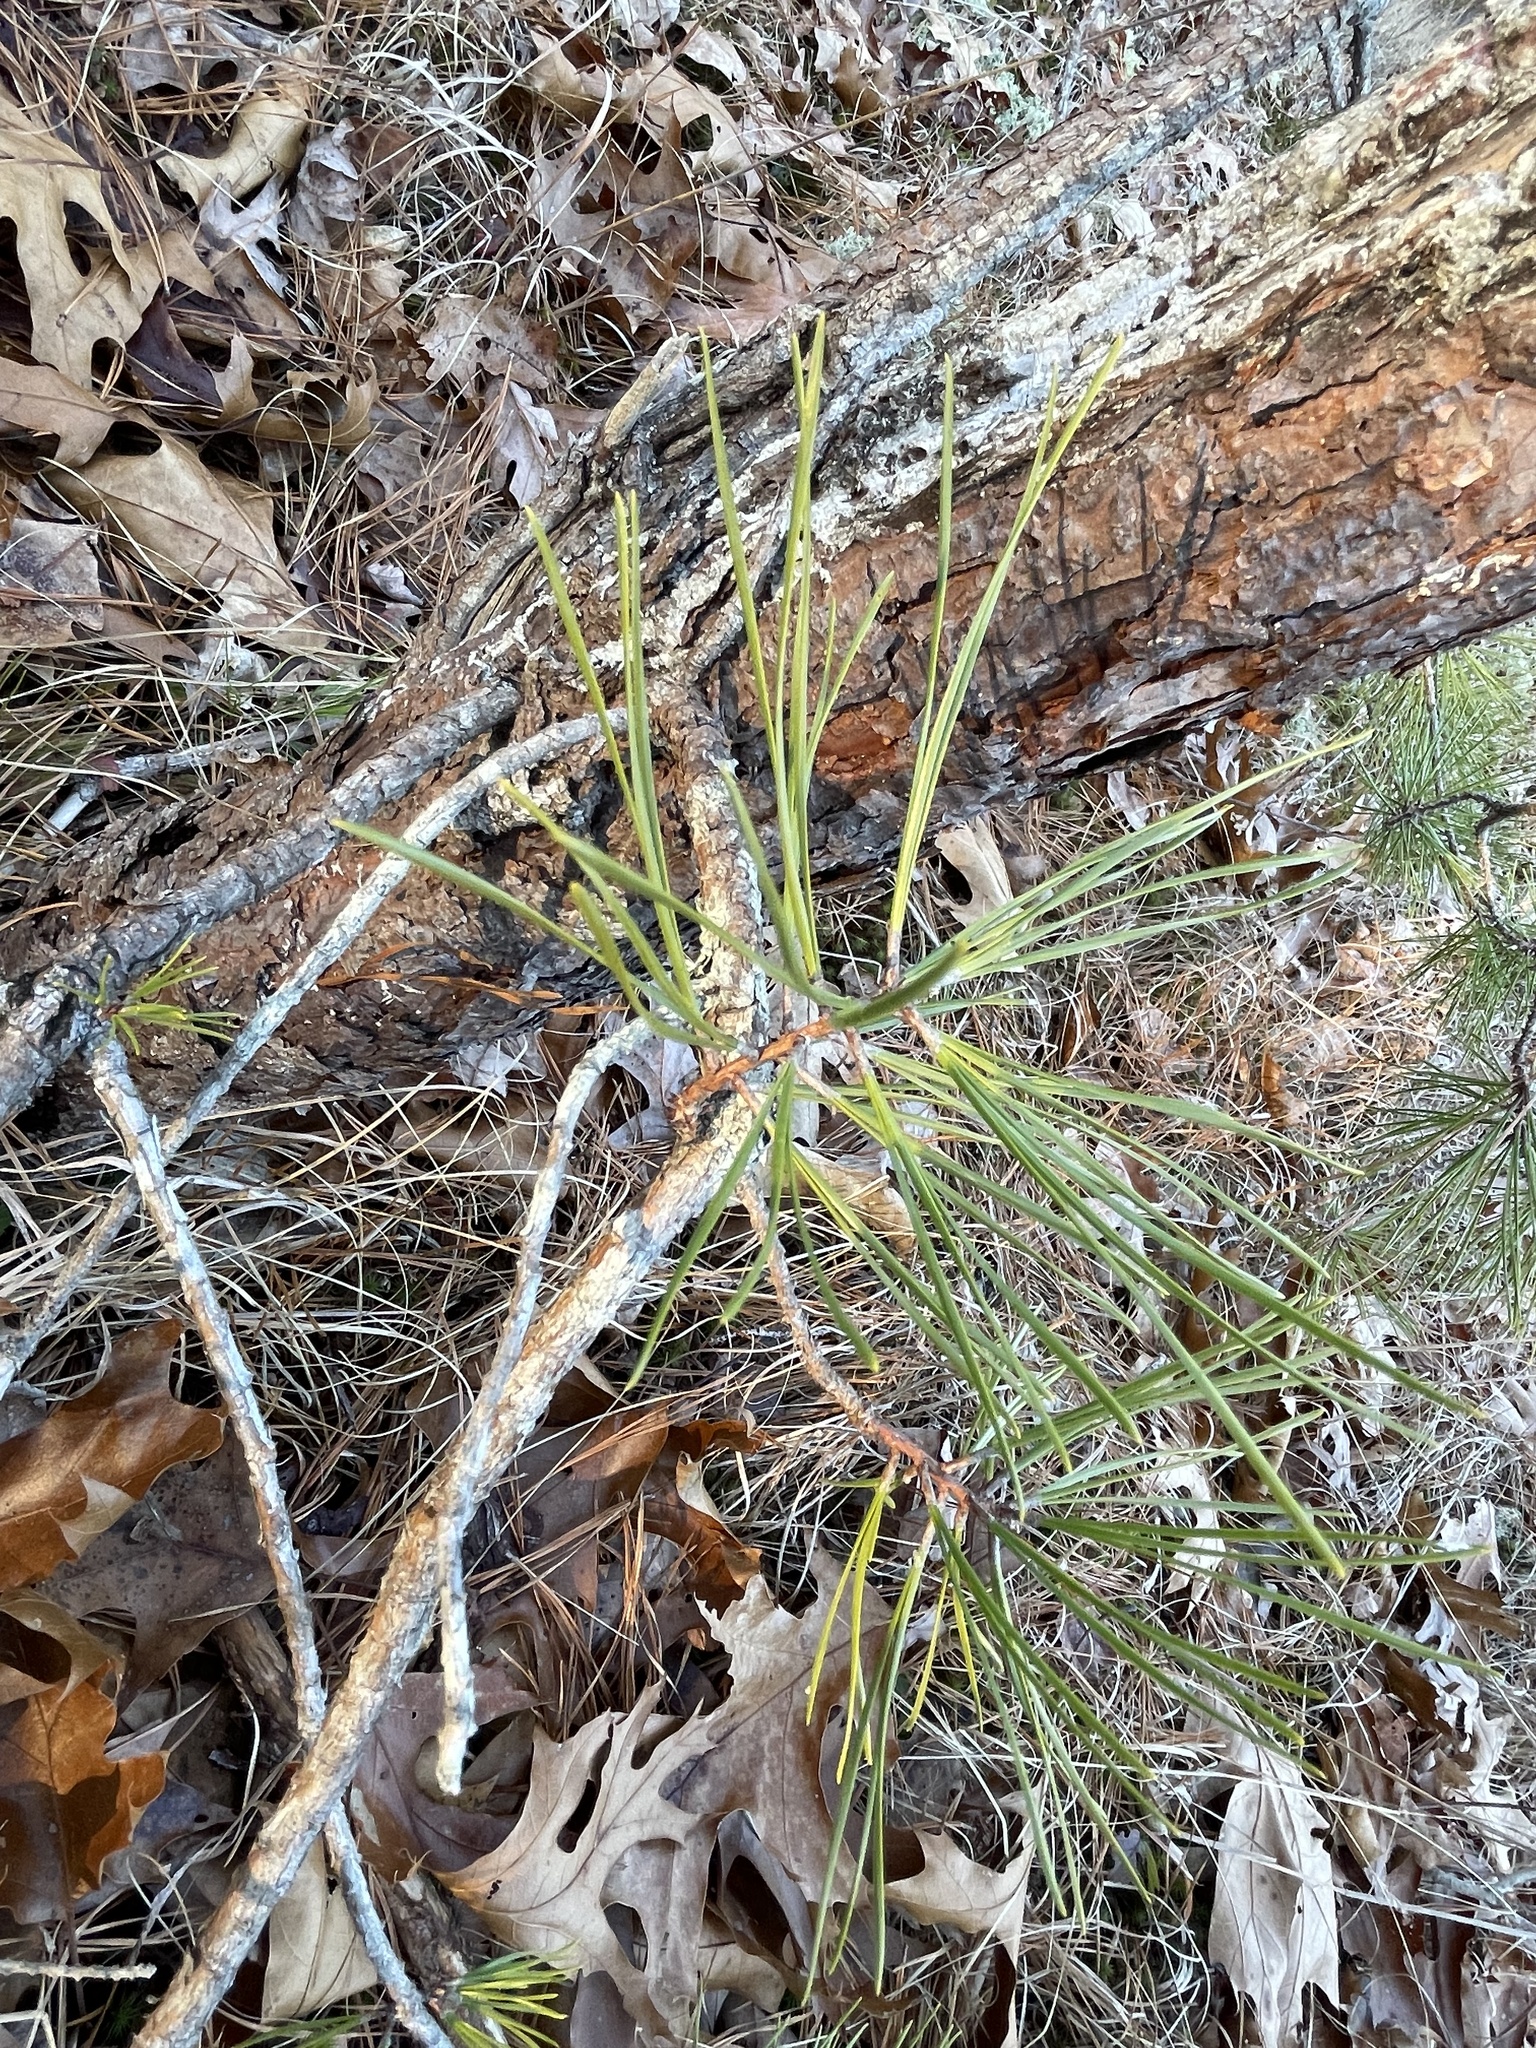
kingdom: Plantae
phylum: Tracheophyta
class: Pinopsida
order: Pinales
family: Pinaceae
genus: Pinus
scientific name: Pinus rigida
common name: Pitch pine
